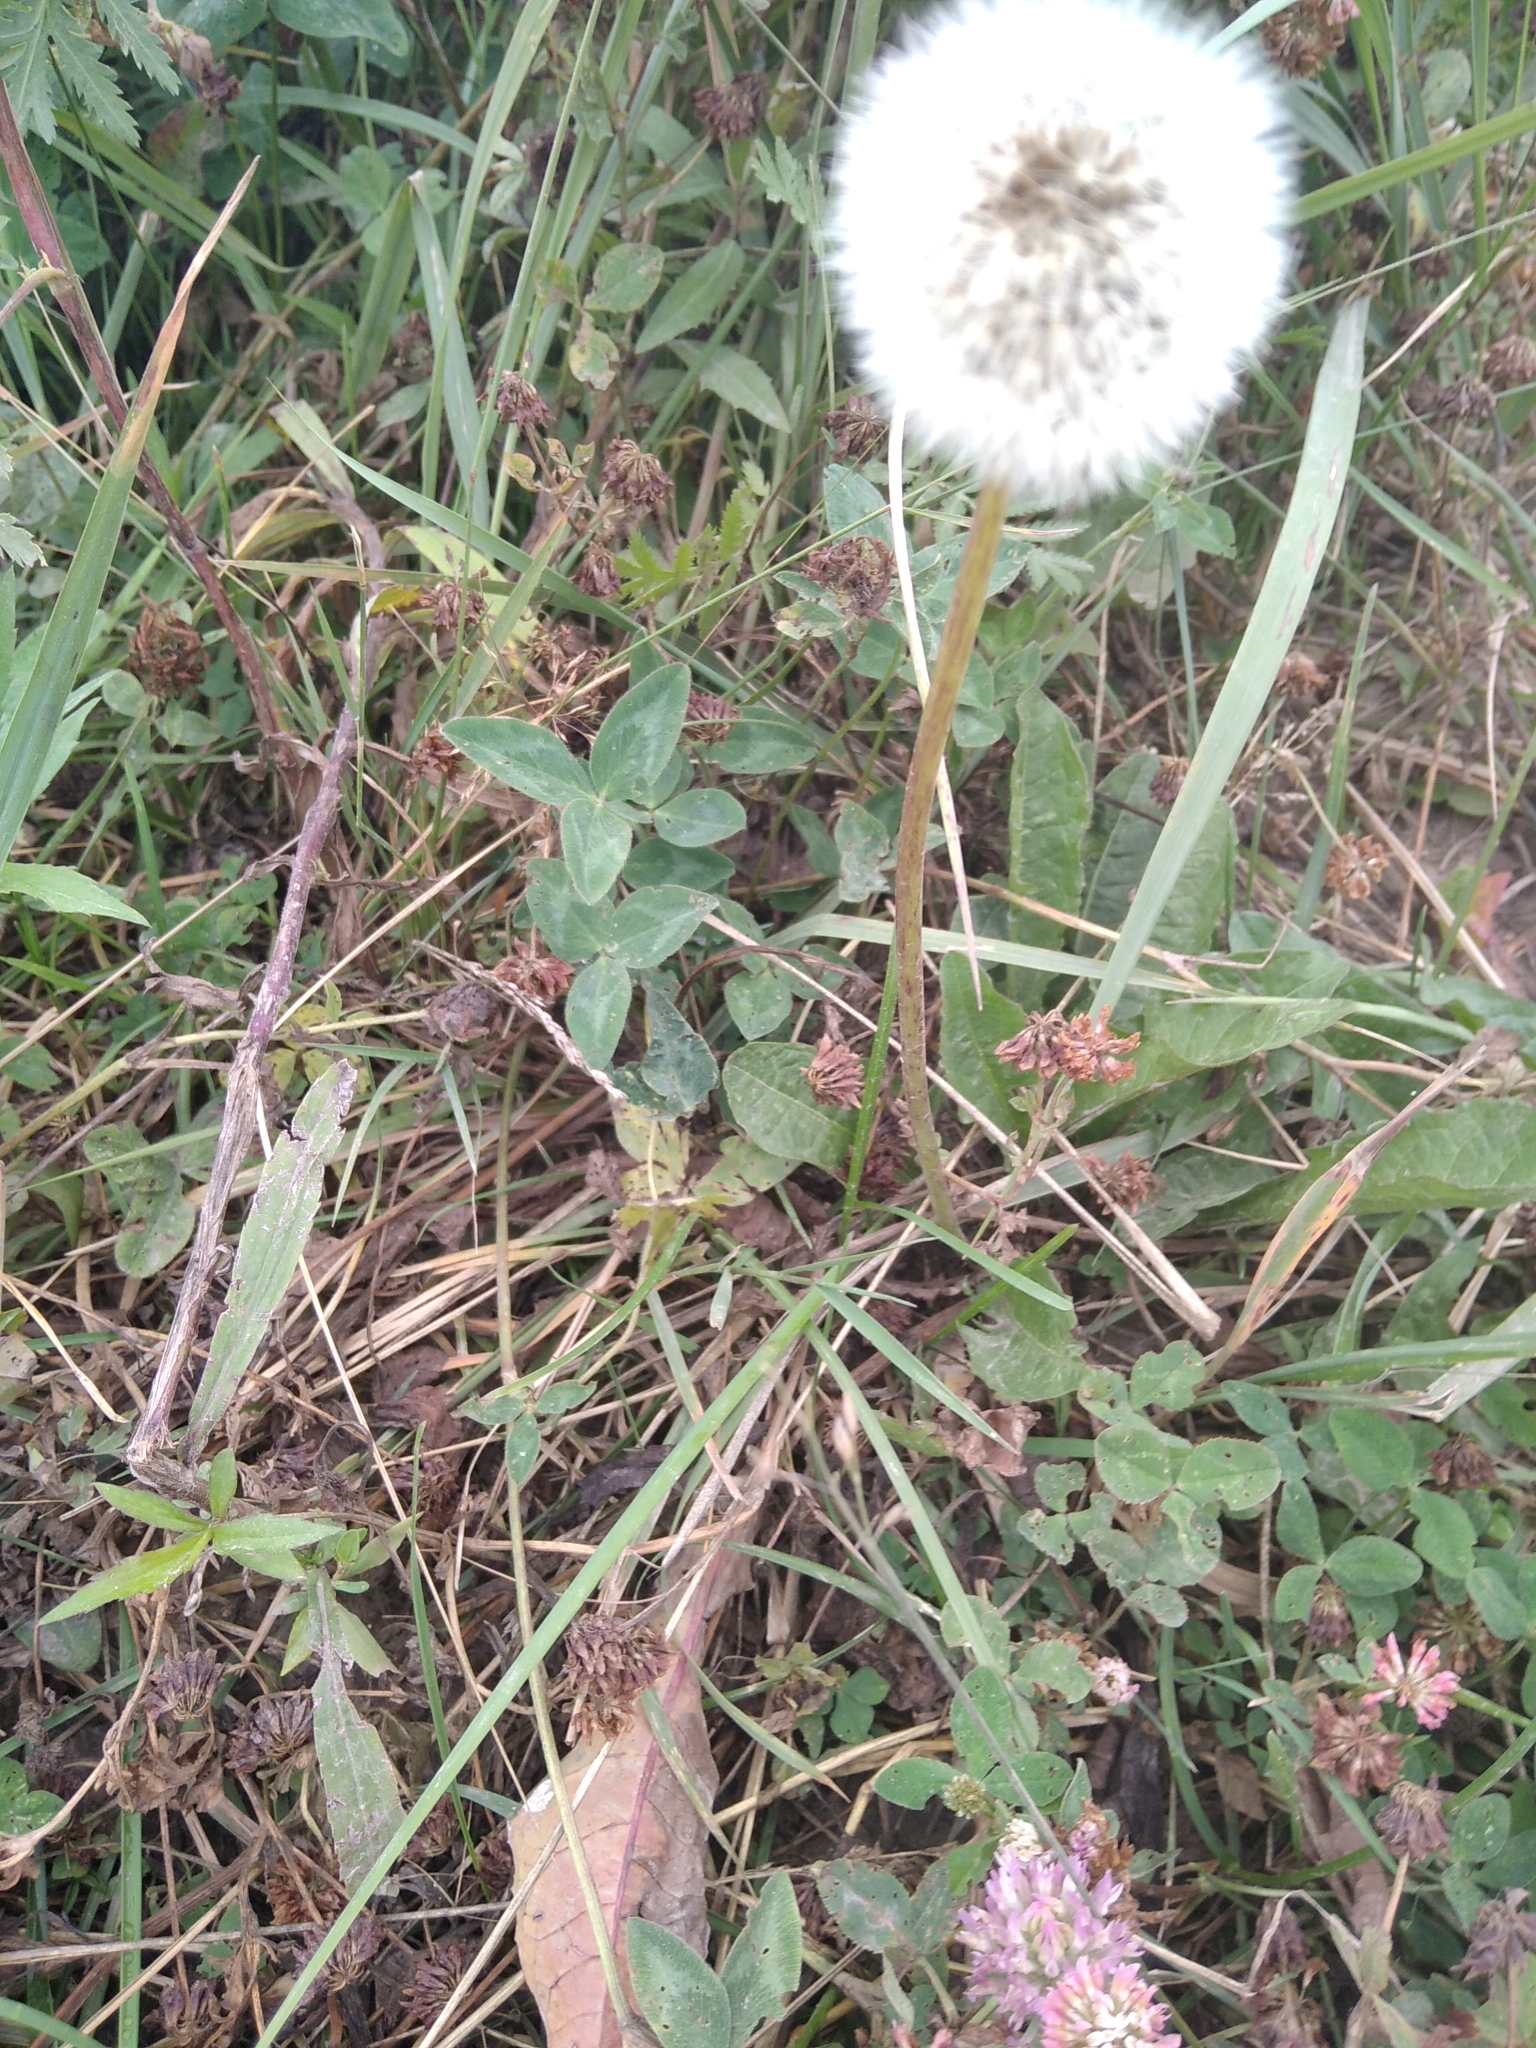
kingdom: Plantae
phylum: Tracheophyta
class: Magnoliopsida
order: Asterales
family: Asteraceae
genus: Taraxacum
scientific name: Taraxacum officinale
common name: Common dandelion
